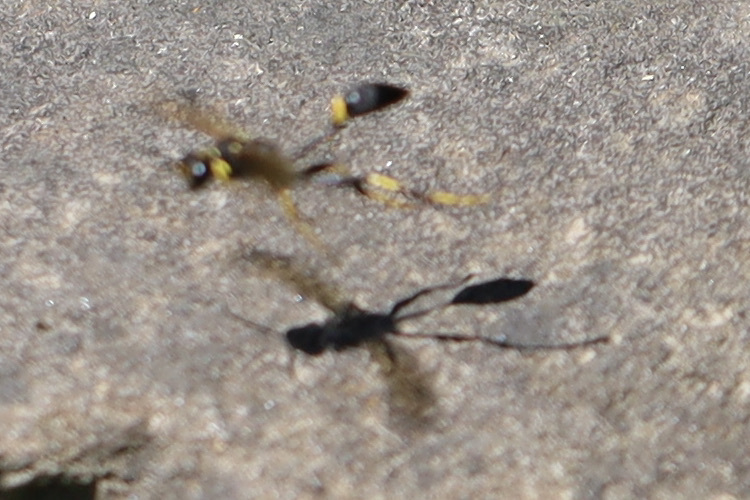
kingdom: Animalia
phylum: Arthropoda
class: Insecta
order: Hymenoptera
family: Sphecidae
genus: Sceliphron
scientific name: Sceliphron caementarium
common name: Mud dauber
